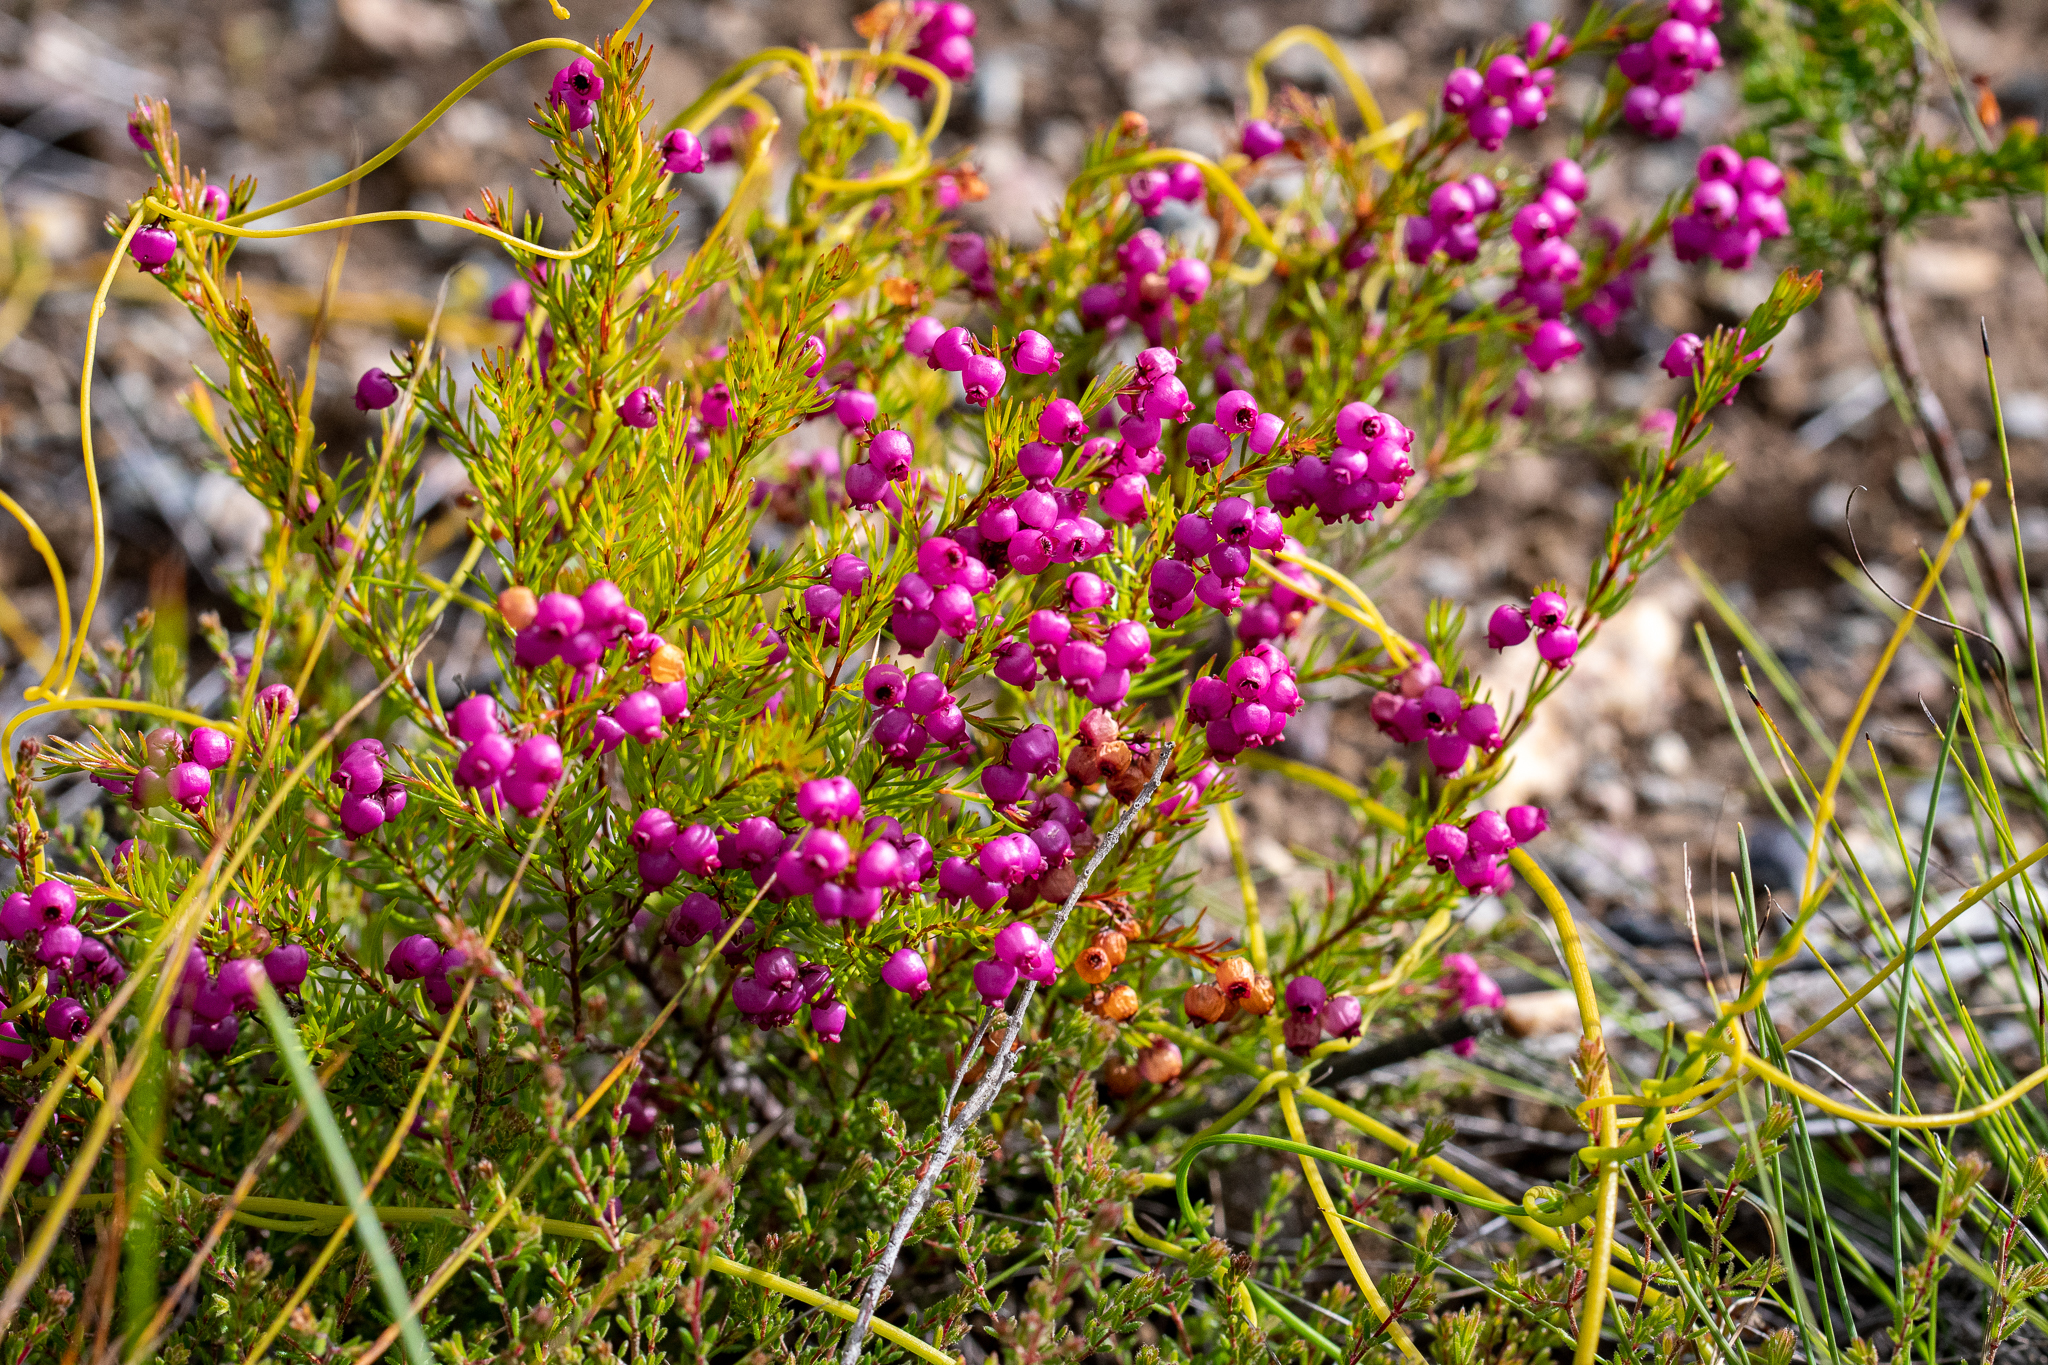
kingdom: Plantae
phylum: Tracheophyta
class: Magnoliopsida
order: Ericales
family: Ericaceae
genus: Erica
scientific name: Erica multumbellifera
